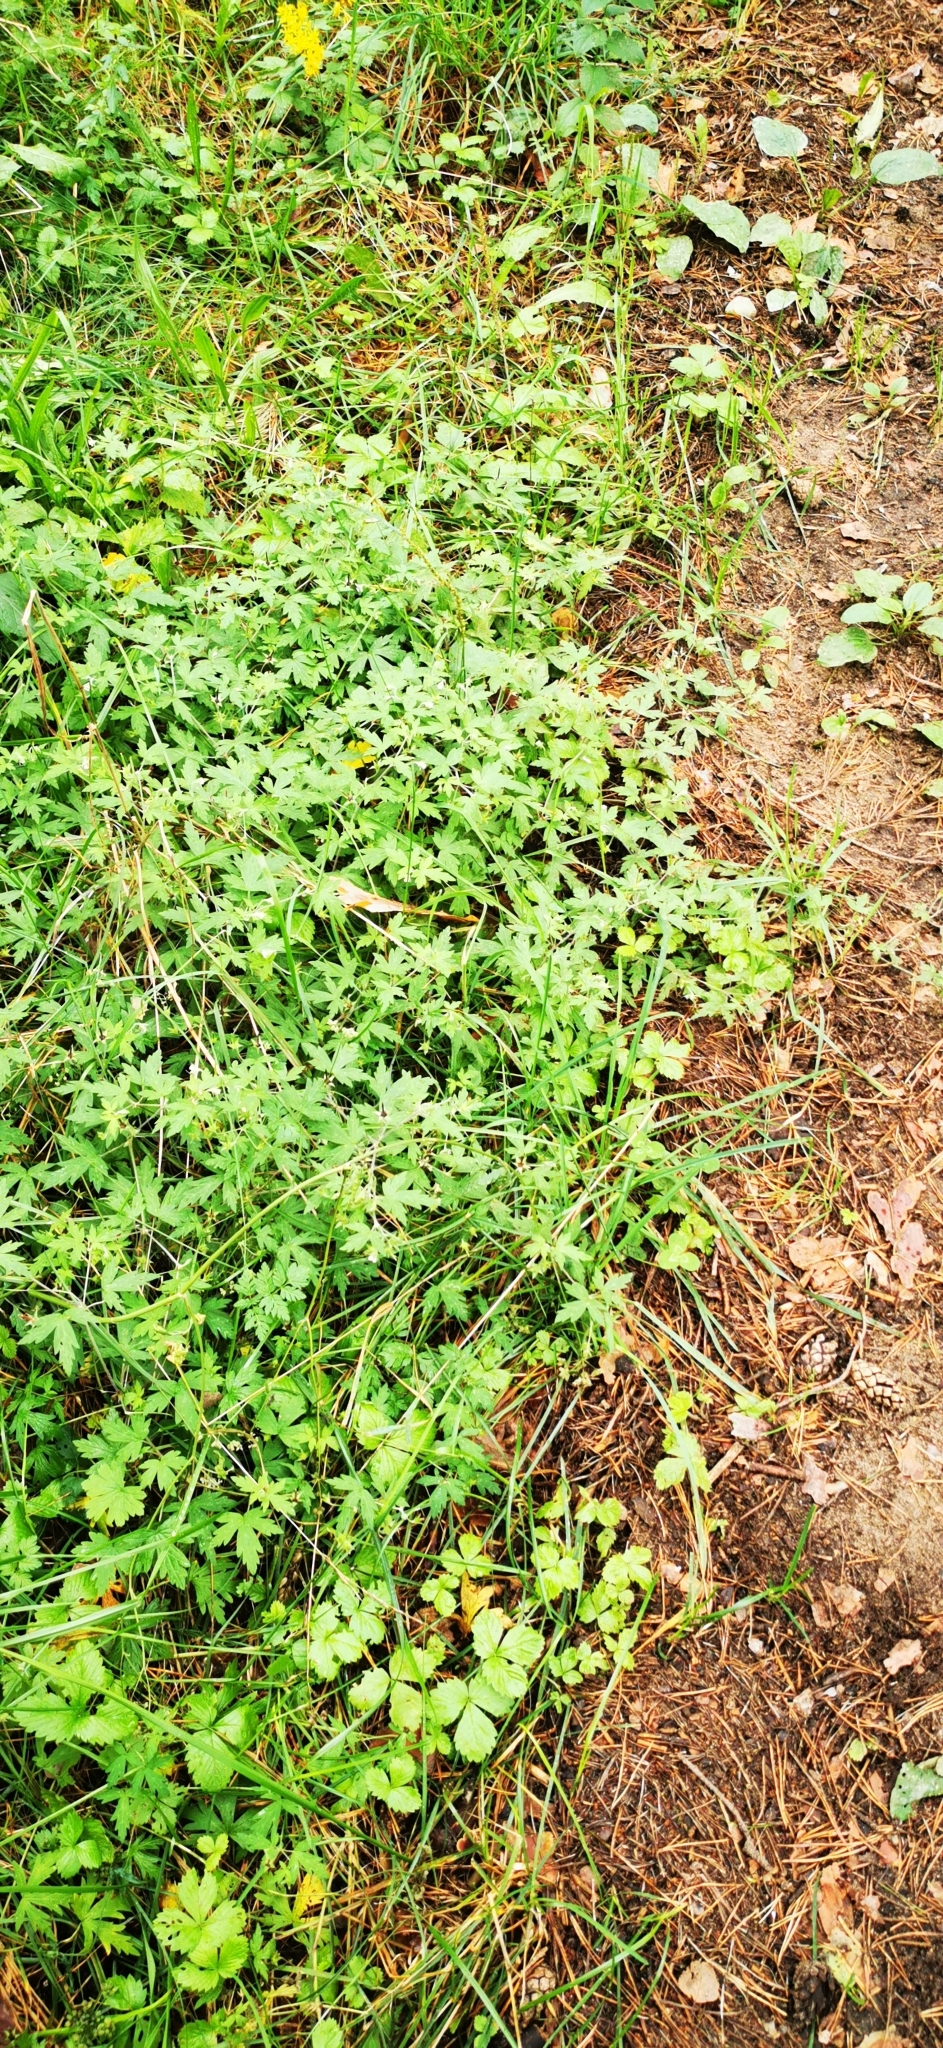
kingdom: Plantae
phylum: Tracheophyta
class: Magnoliopsida
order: Geraniales
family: Geraniaceae
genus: Geranium
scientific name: Geranium sibiricum
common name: Siberian crane's-bill
